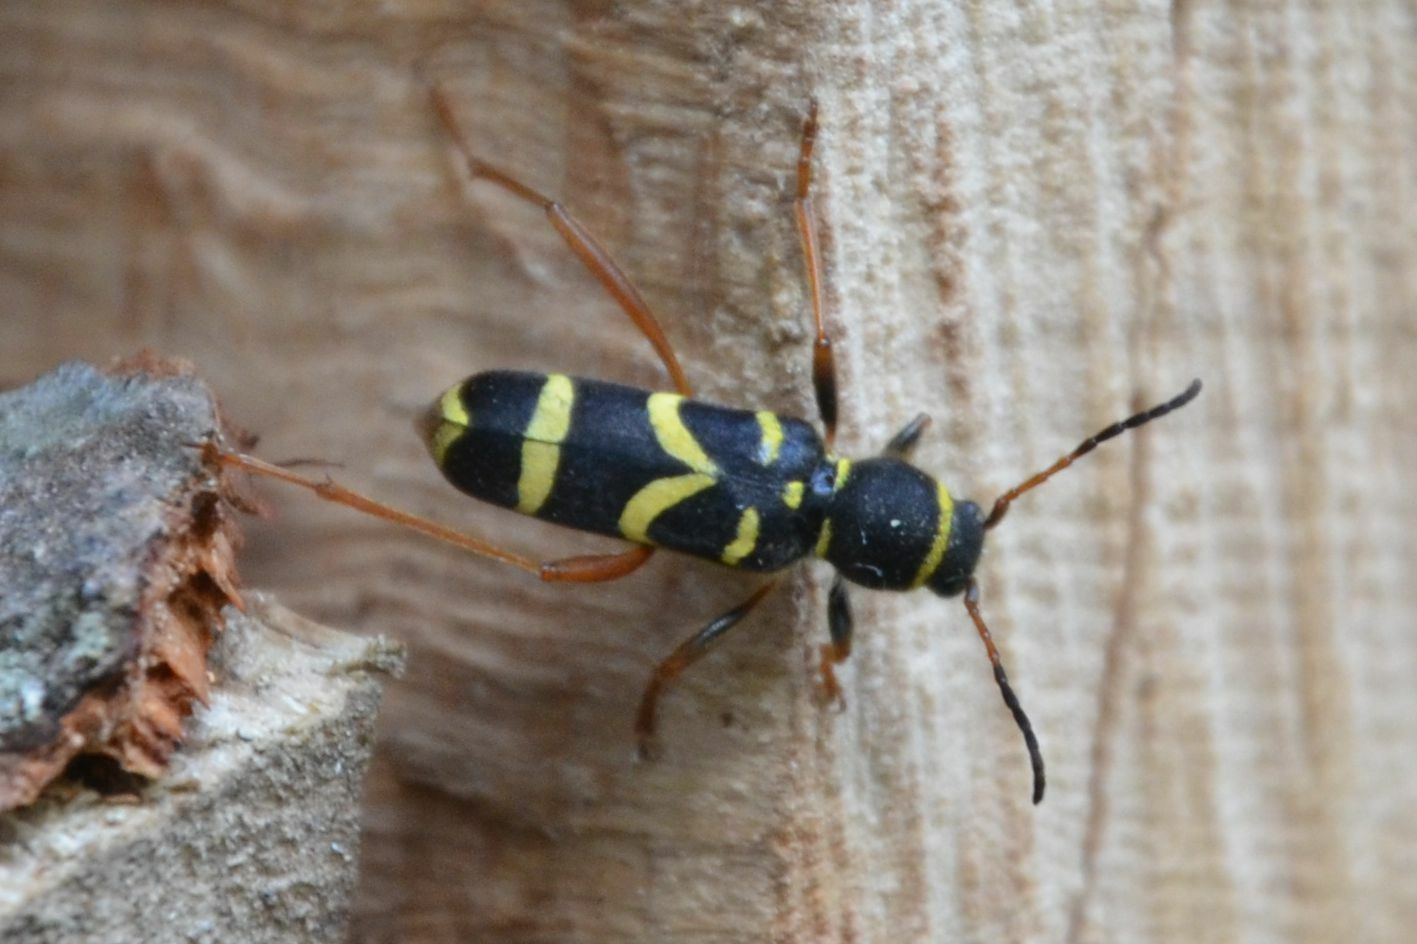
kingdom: Animalia
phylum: Arthropoda
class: Insecta
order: Coleoptera
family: Cerambycidae
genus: Clytus
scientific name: Clytus arietis
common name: Wasp beetle
